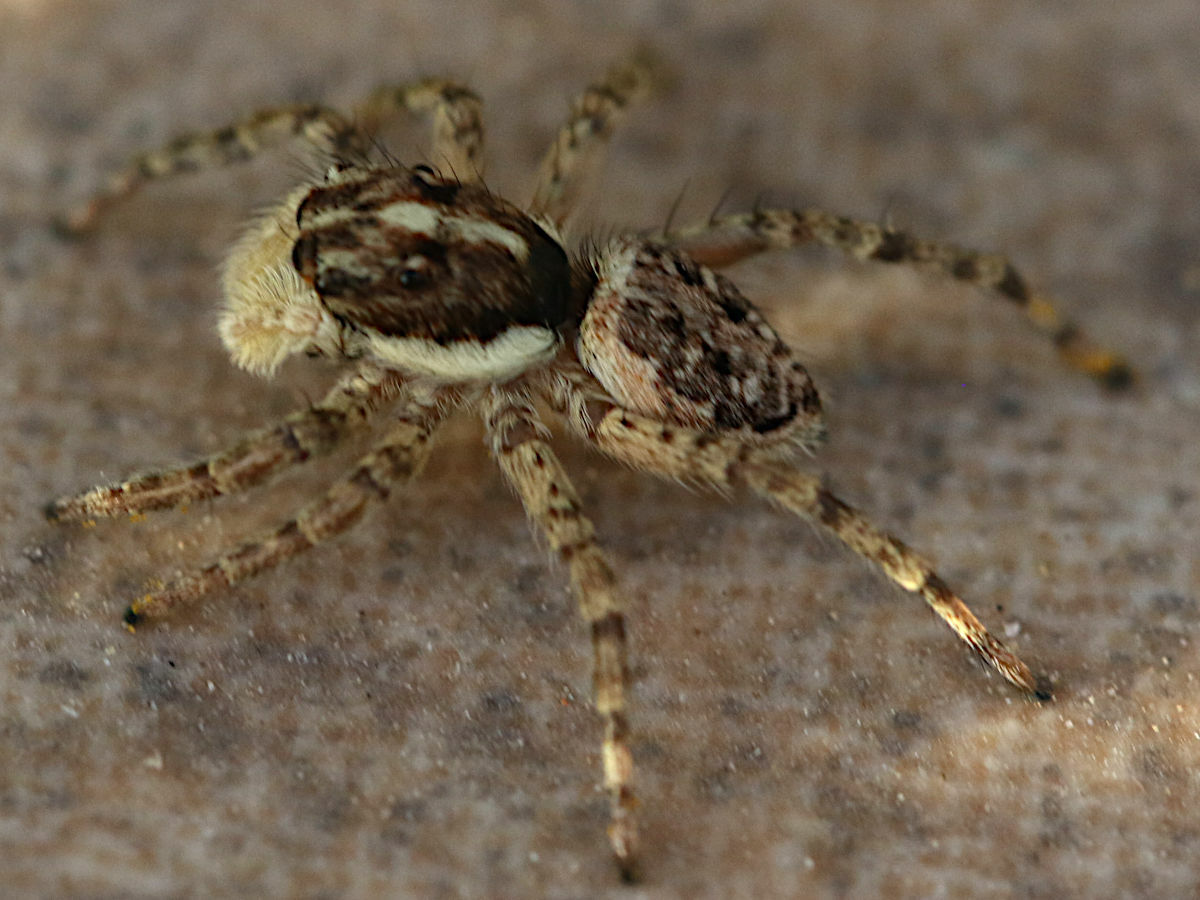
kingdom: Animalia
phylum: Arthropoda
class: Arachnida
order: Araneae
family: Salticidae
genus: Menemerus
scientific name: Menemerus semilimbatus
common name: Jumping spider
